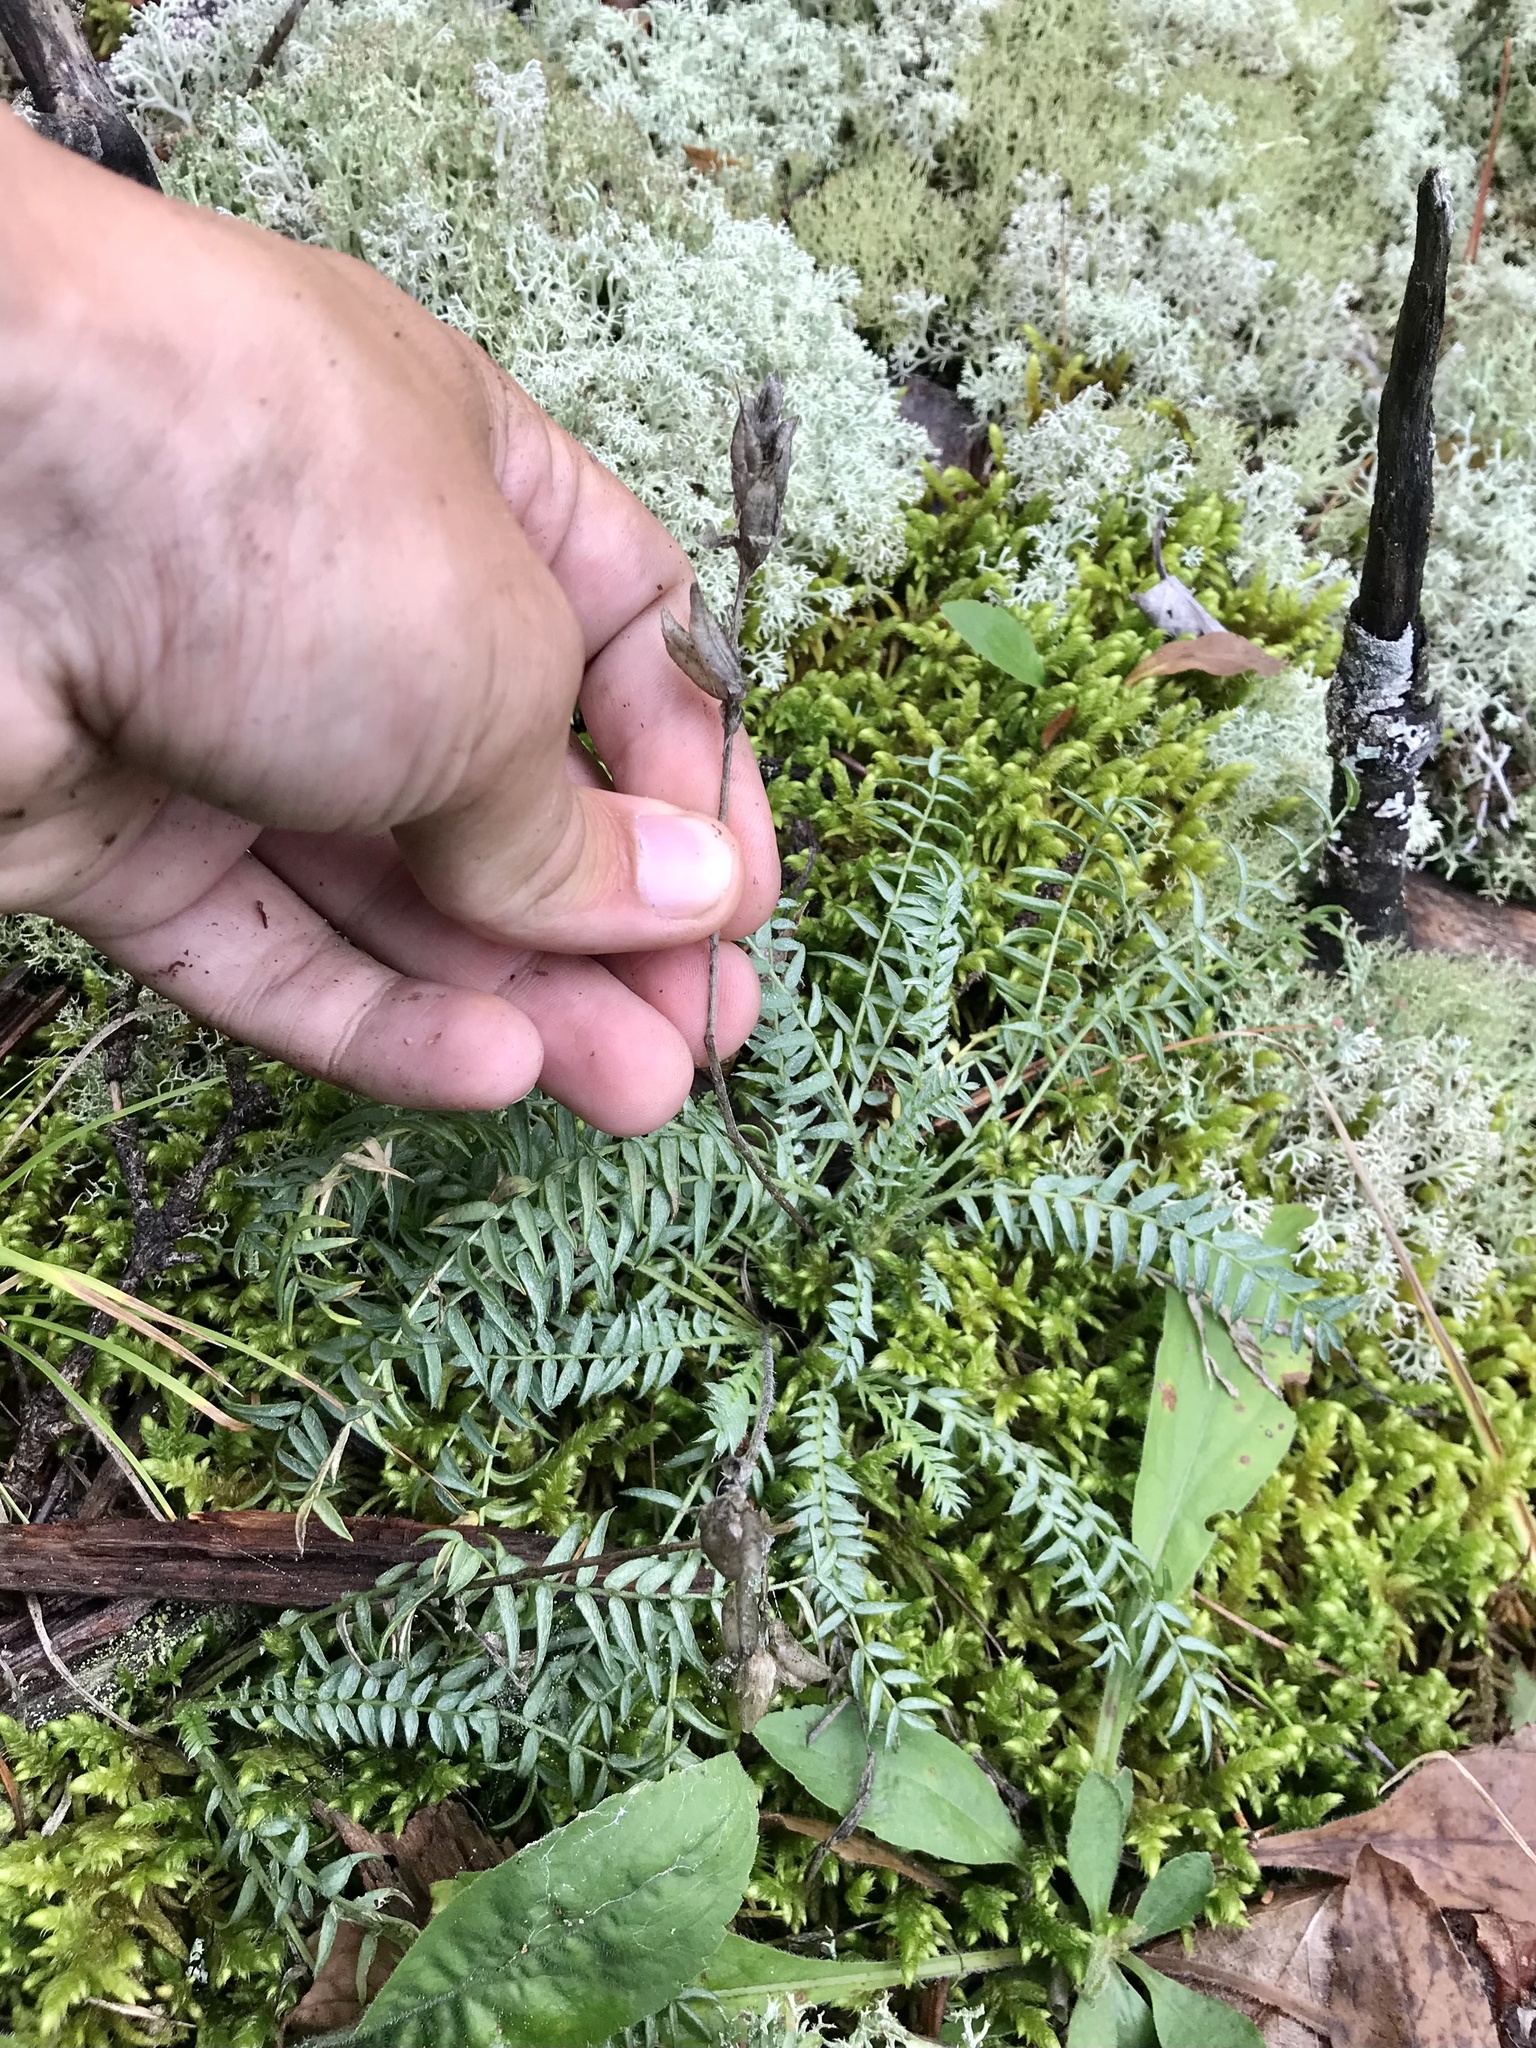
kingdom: Plantae
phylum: Tracheophyta
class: Magnoliopsida
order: Fabales
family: Fabaceae
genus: Oxytropis
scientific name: Oxytropis borealis
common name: Boreal locoweed
